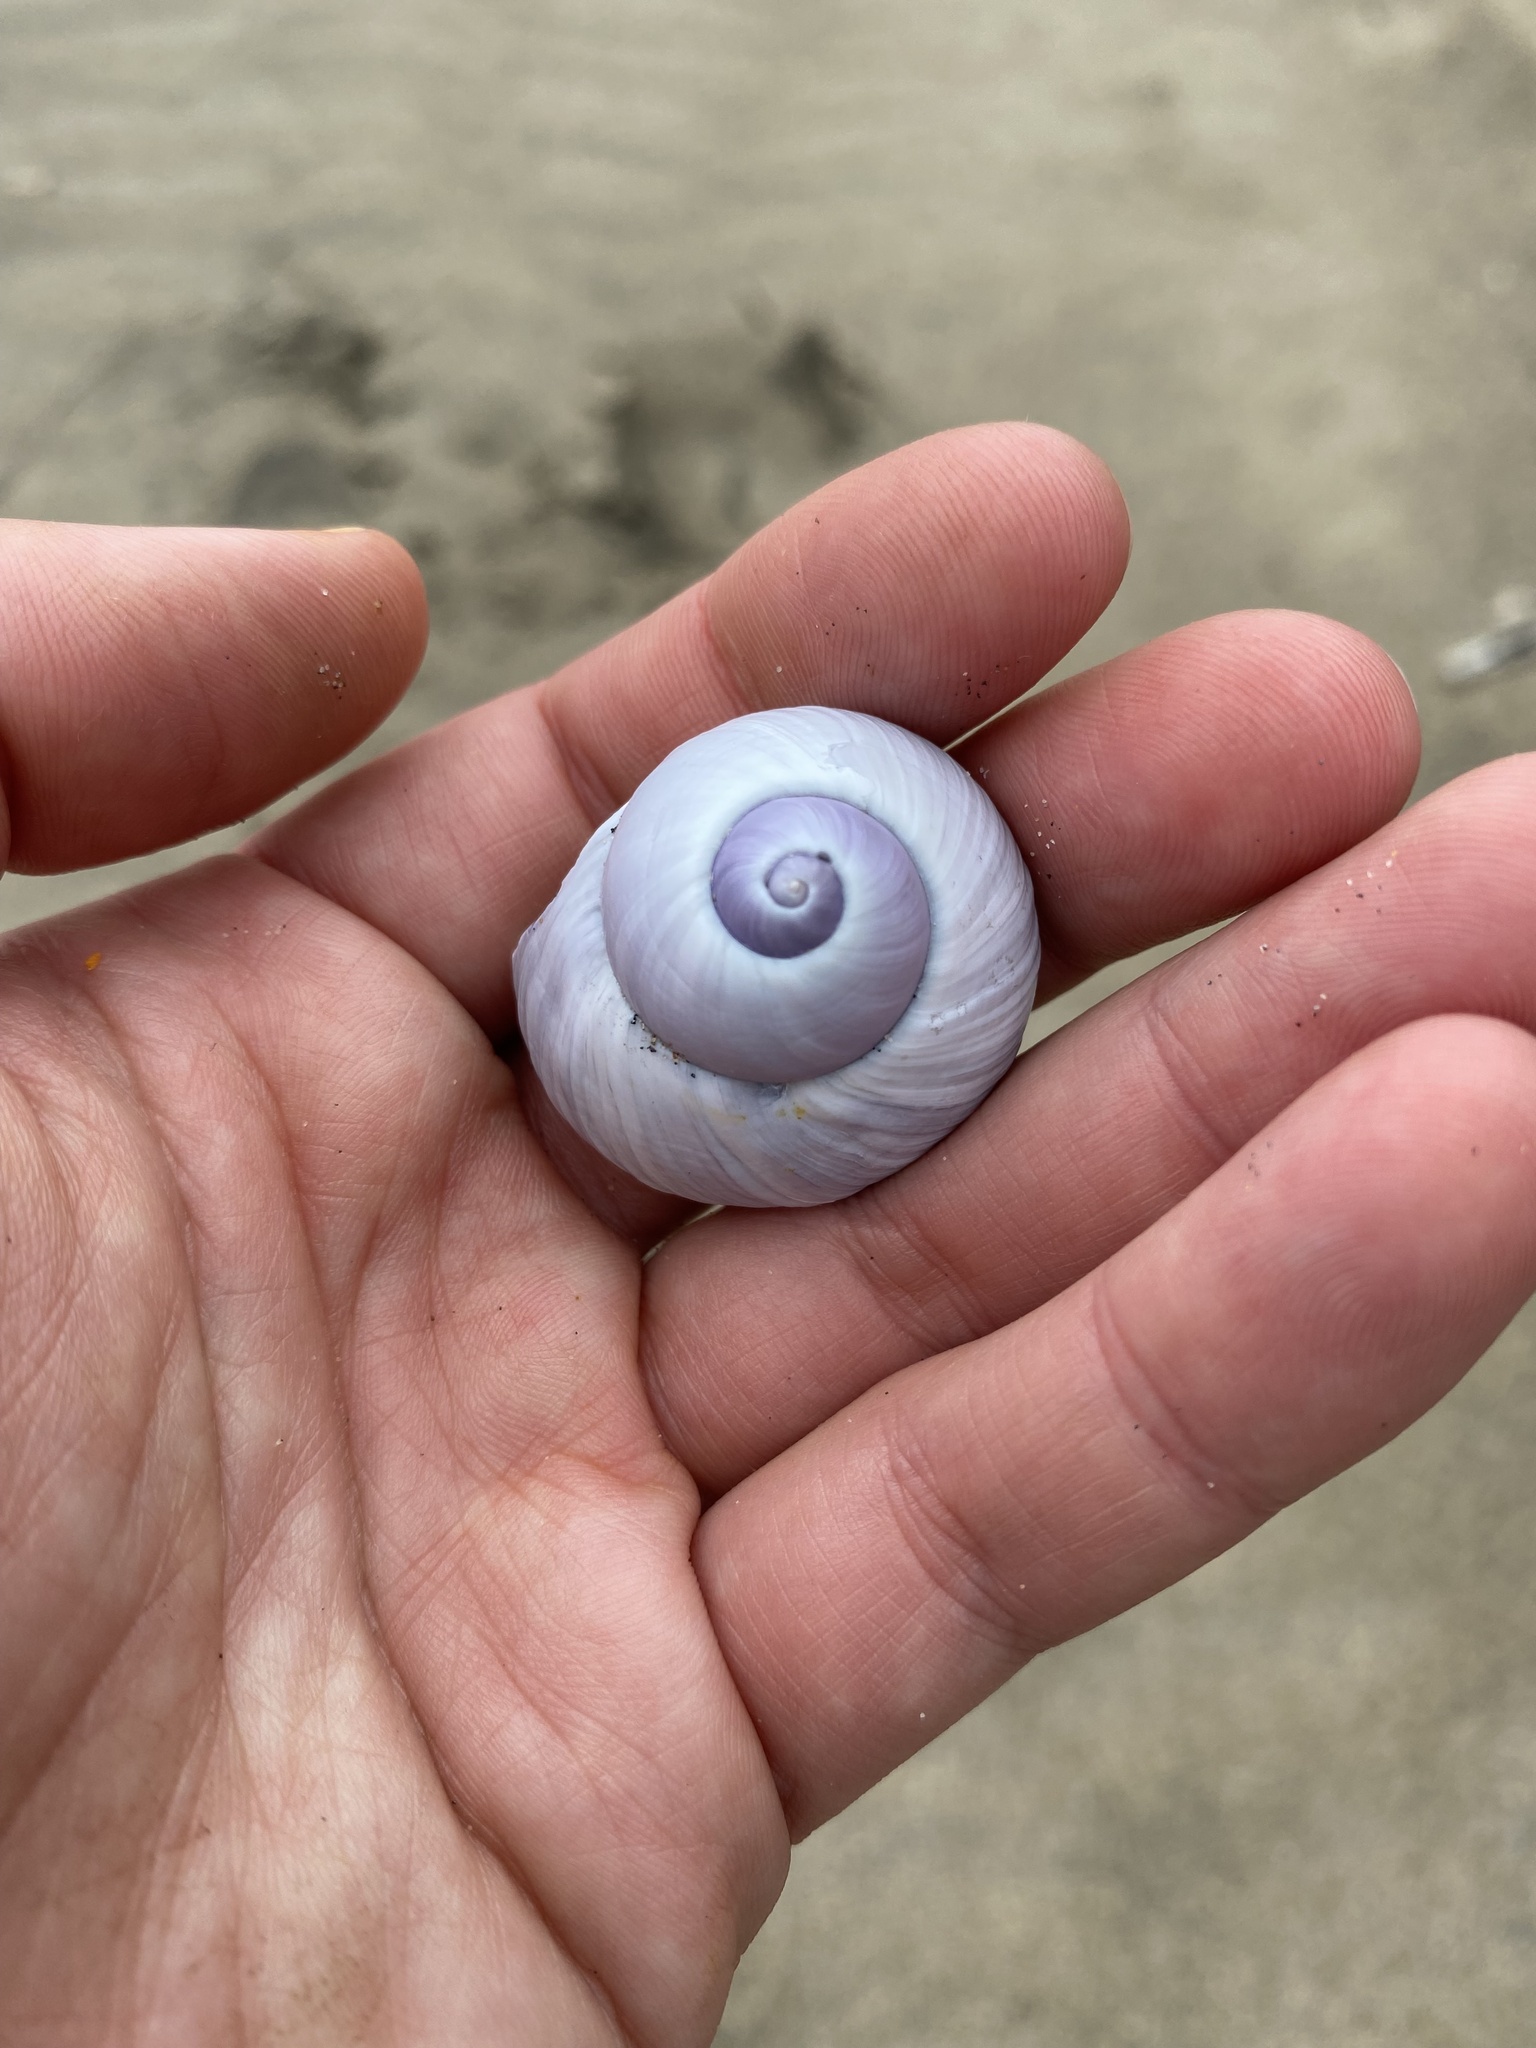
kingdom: Animalia
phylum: Mollusca
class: Gastropoda
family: Epitoniidae
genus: Janthina
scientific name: Janthina janthina
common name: Common janthina
